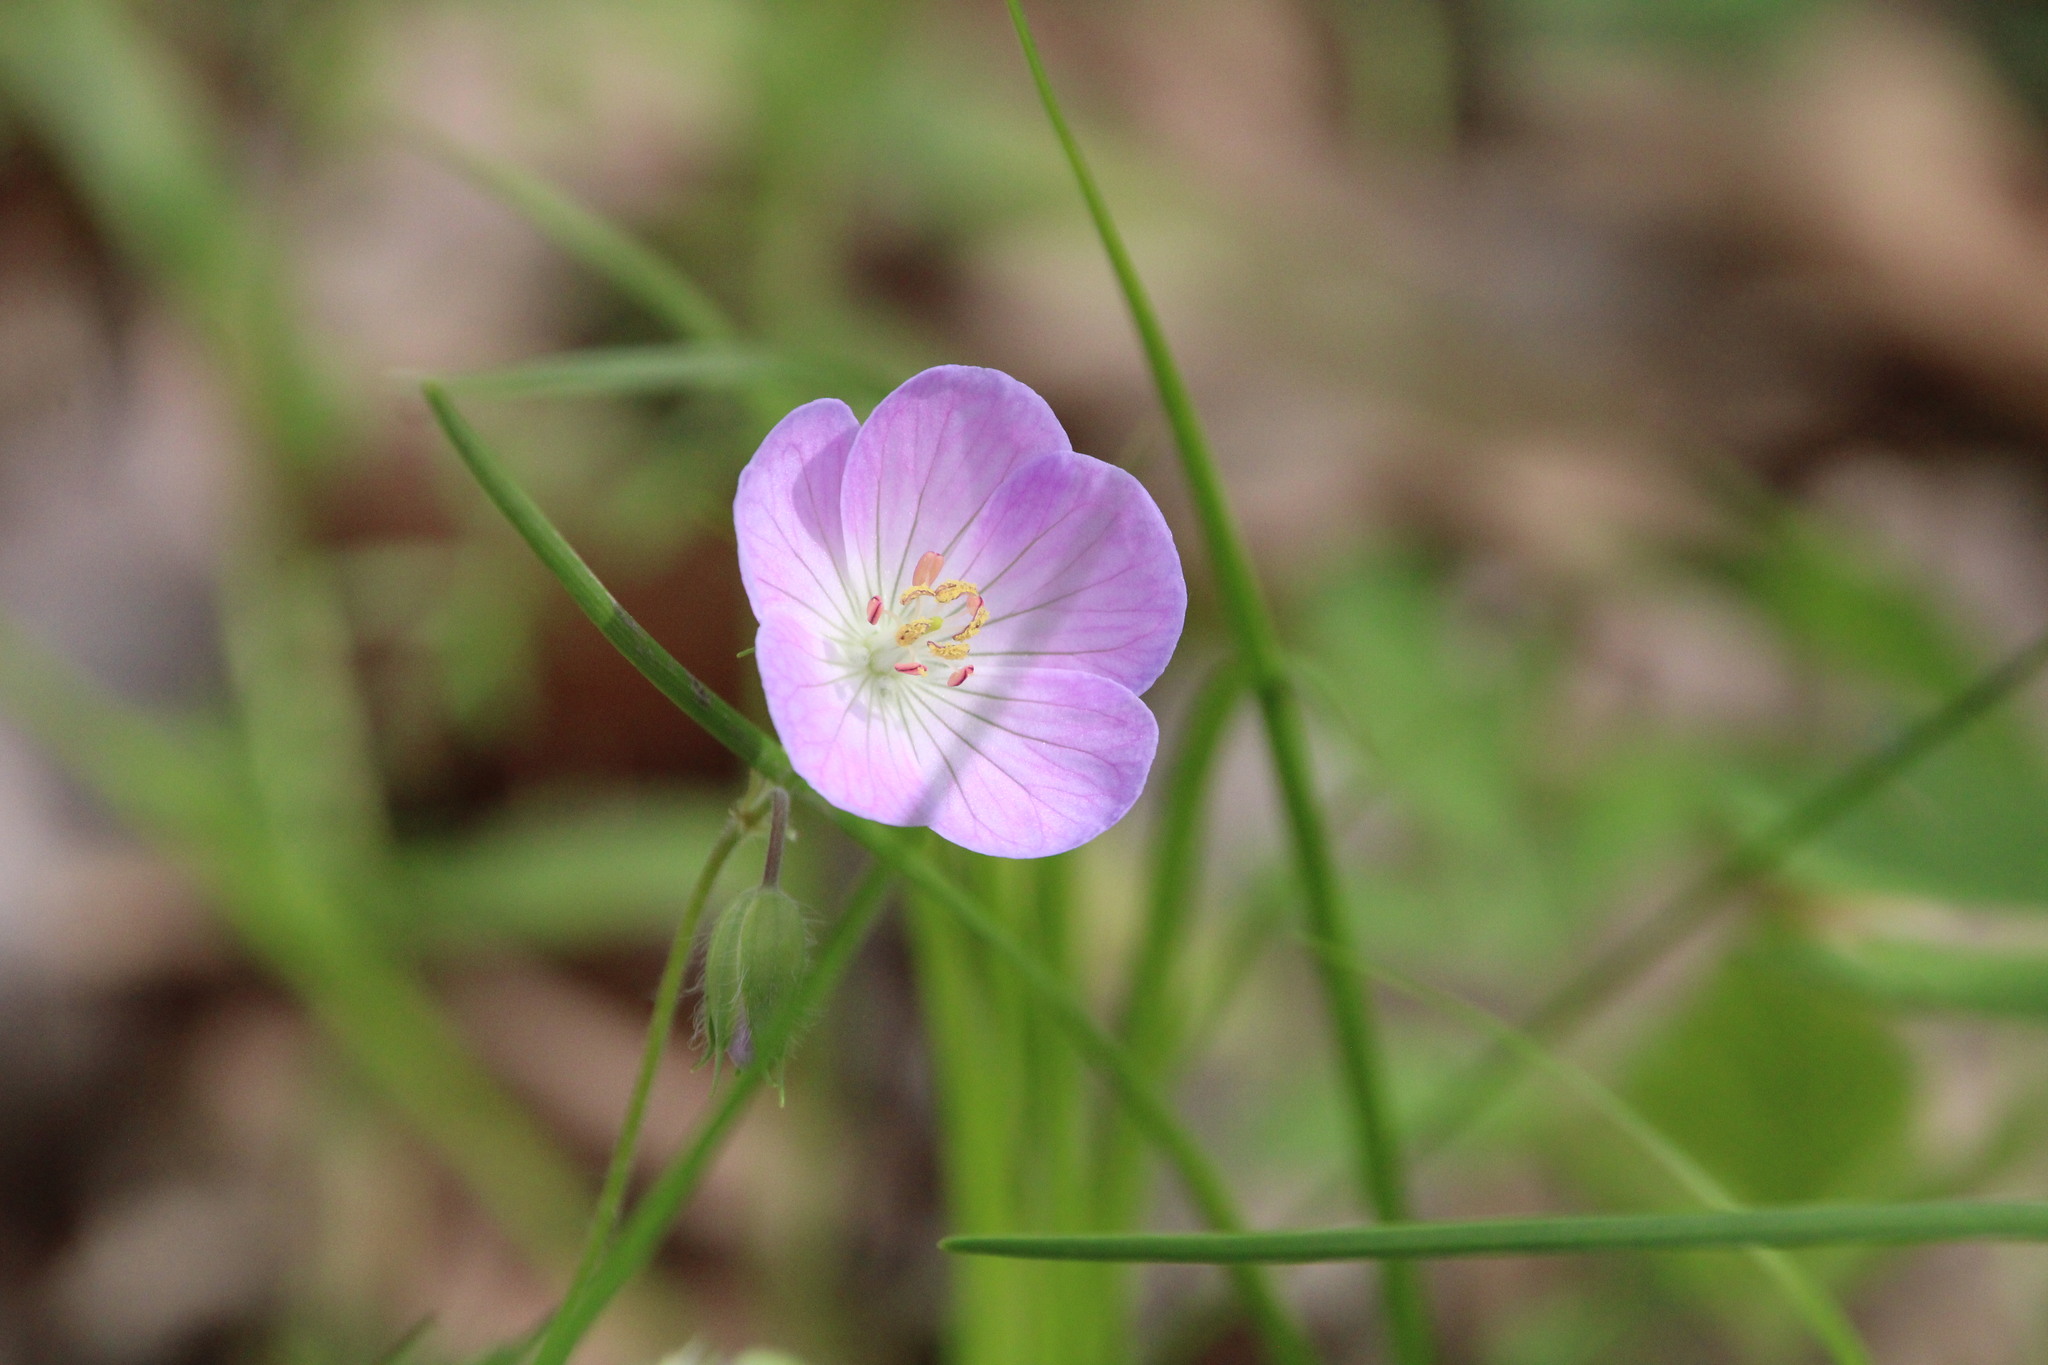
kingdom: Plantae
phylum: Tracheophyta
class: Magnoliopsida
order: Geraniales
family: Geraniaceae
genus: Geranium
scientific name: Geranium maculatum
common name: Spotted geranium
